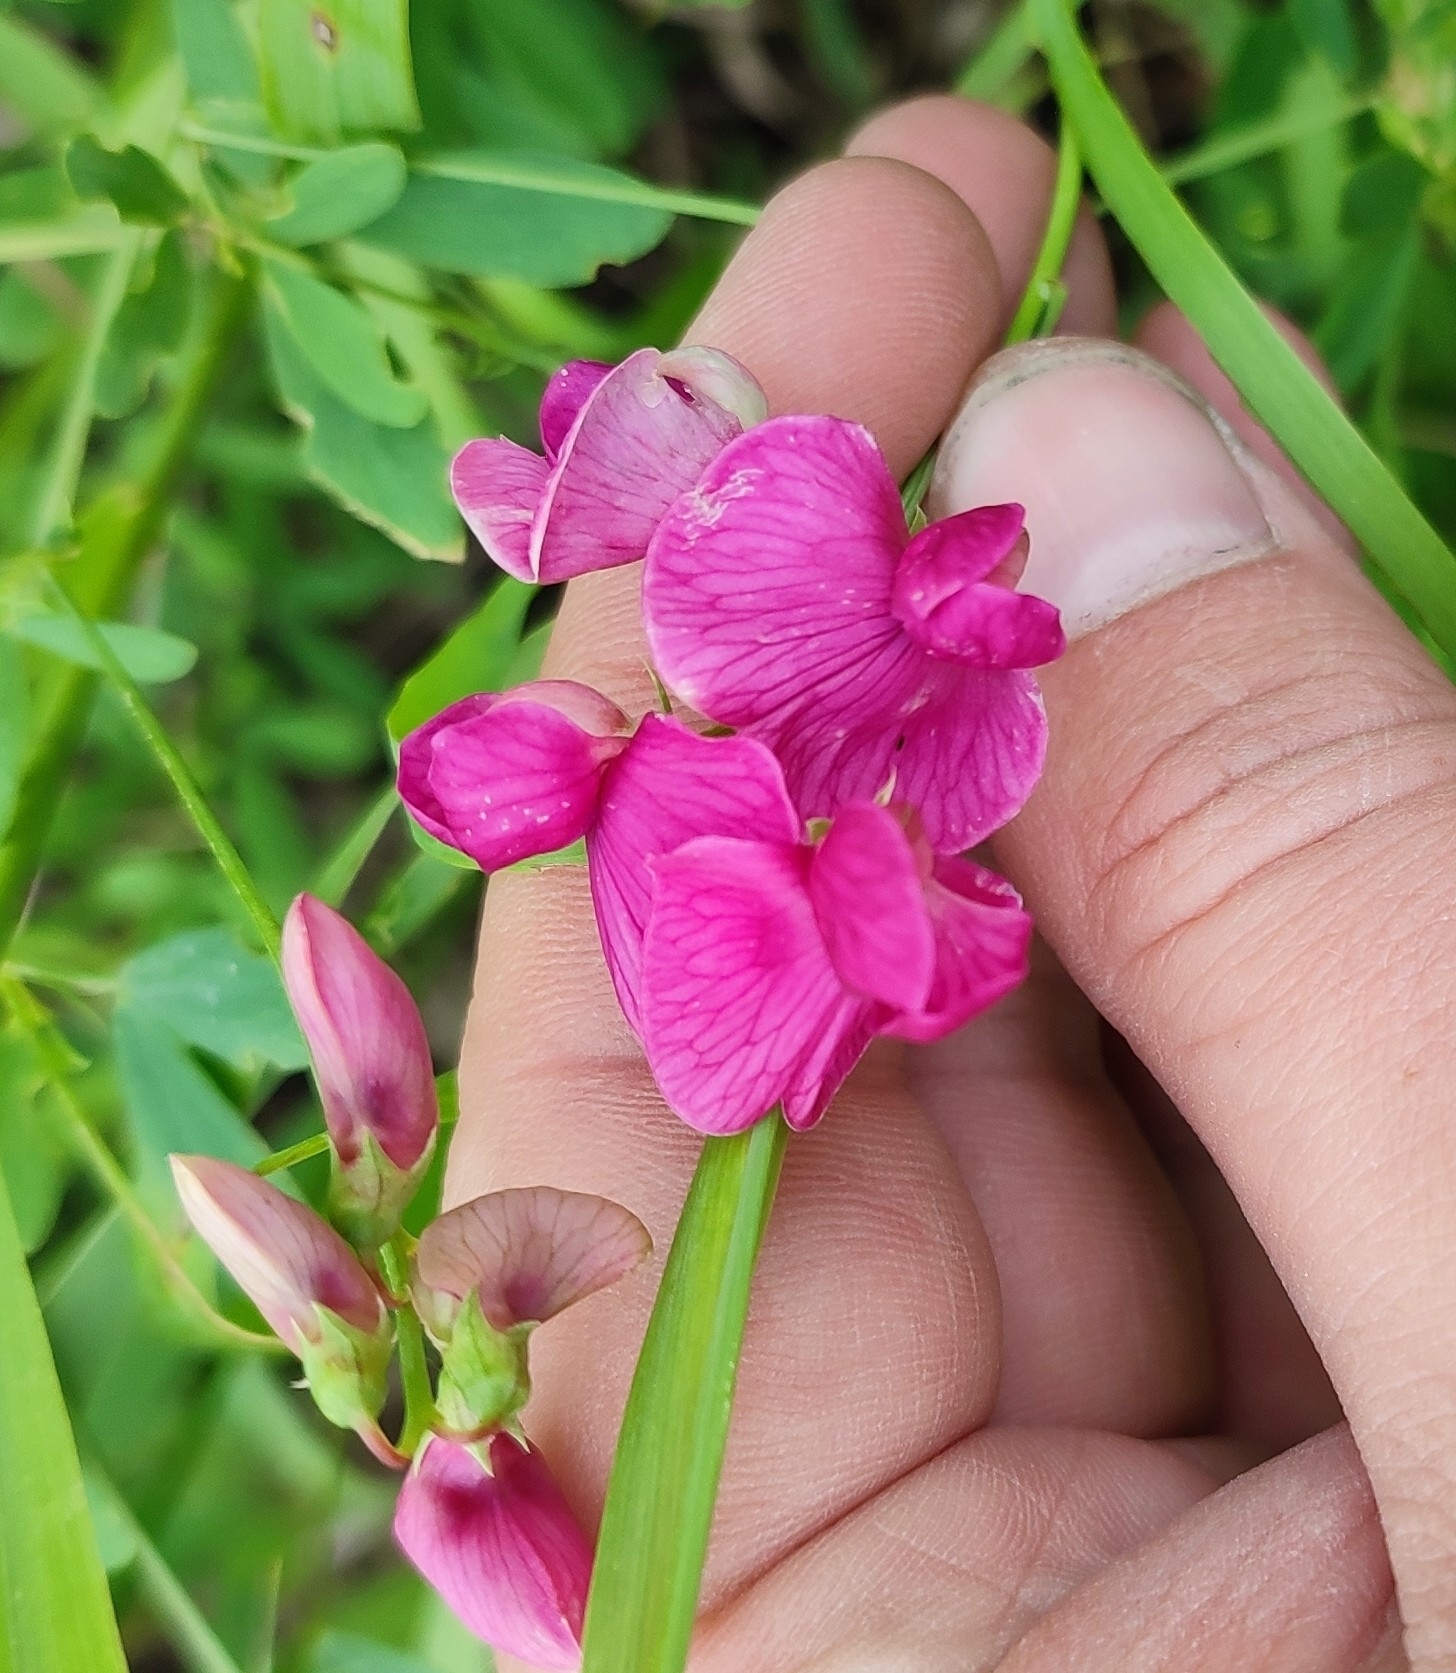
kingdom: Plantae
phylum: Tracheophyta
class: Magnoliopsida
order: Fabales
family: Fabaceae
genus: Lathyrus
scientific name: Lathyrus tuberosus
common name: Tuberous pea
